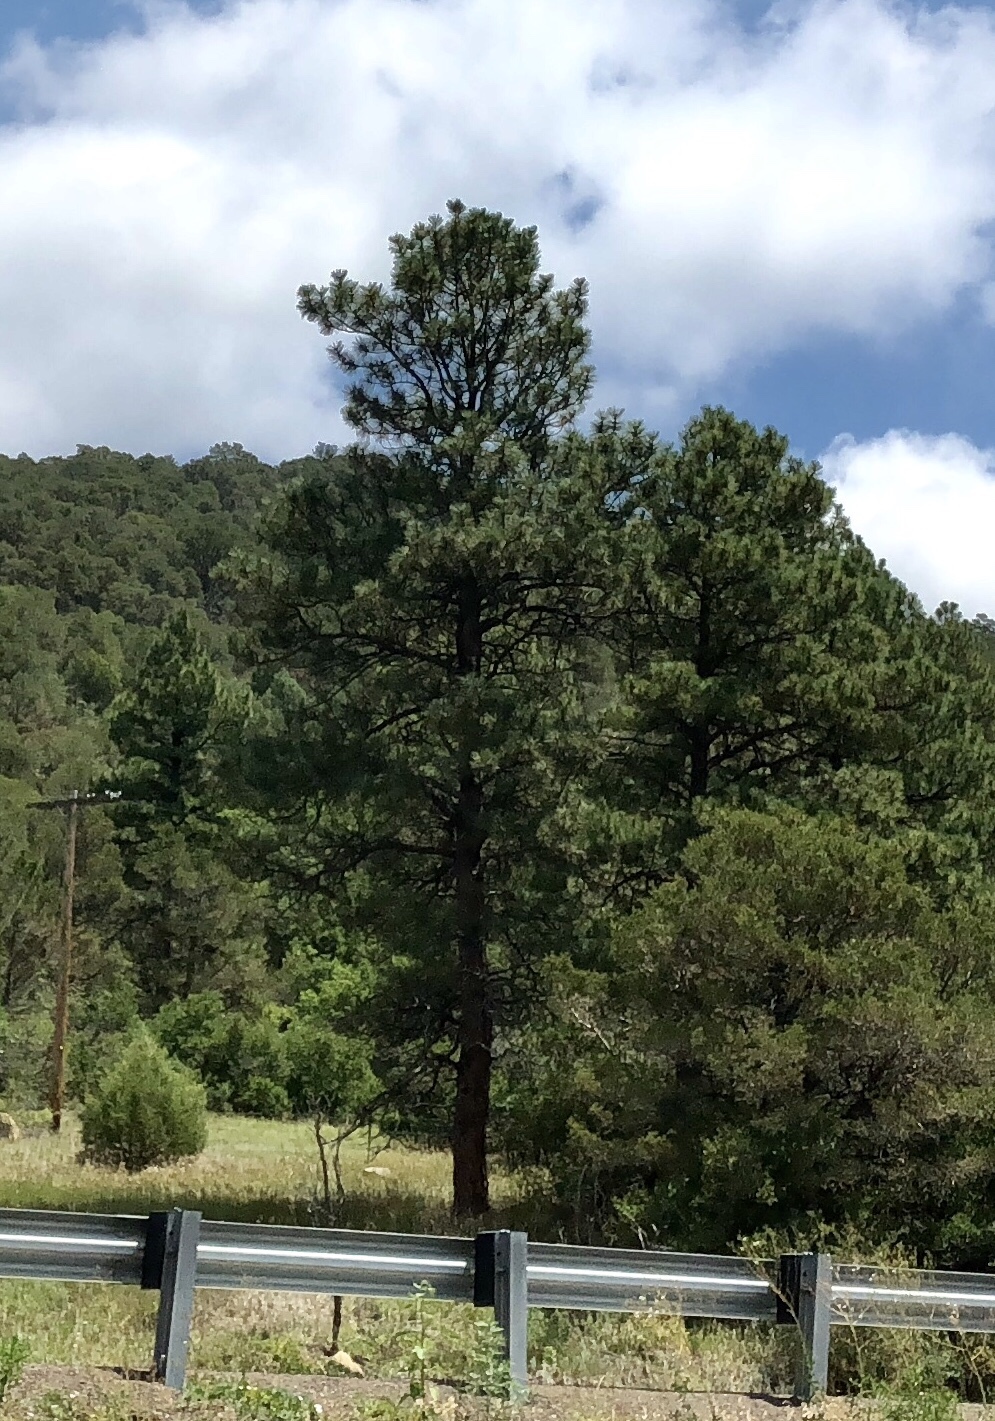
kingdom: Plantae
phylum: Tracheophyta
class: Pinopsida
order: Pinales
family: Pinaceae
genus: Pinus
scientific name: Pinus ponderosa
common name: Western yellow-pine
